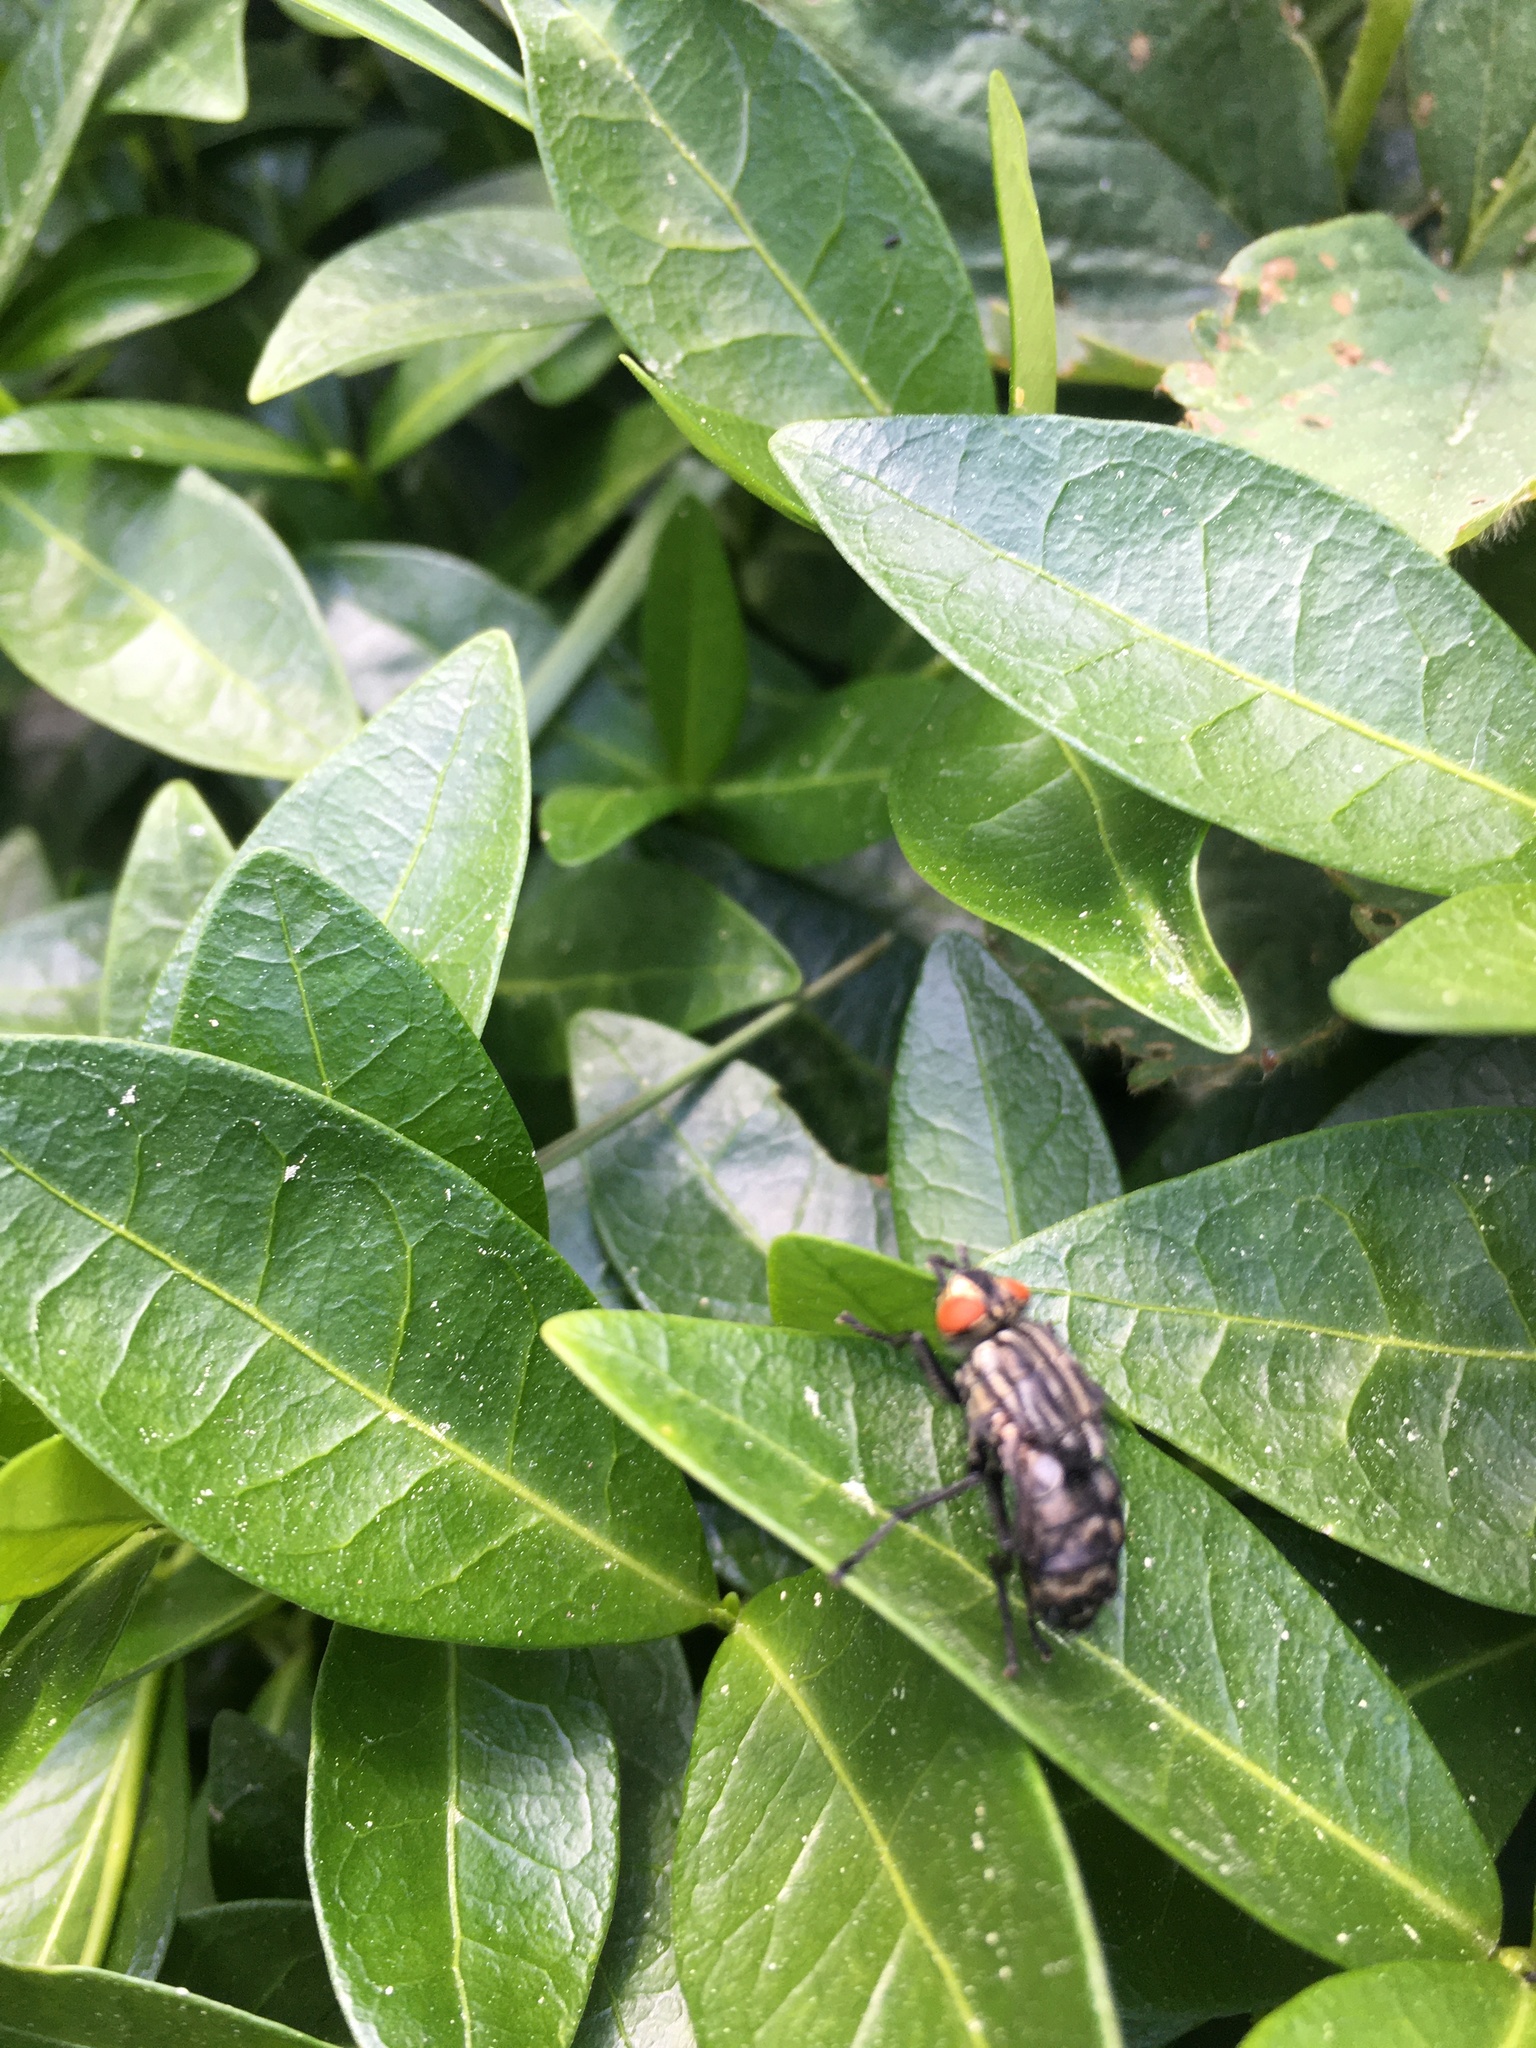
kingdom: Animalia
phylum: Arthropoda
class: Insecta
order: Diptera
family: Sarcophagidae
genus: Sarcophaga
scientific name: Sarcophaga
